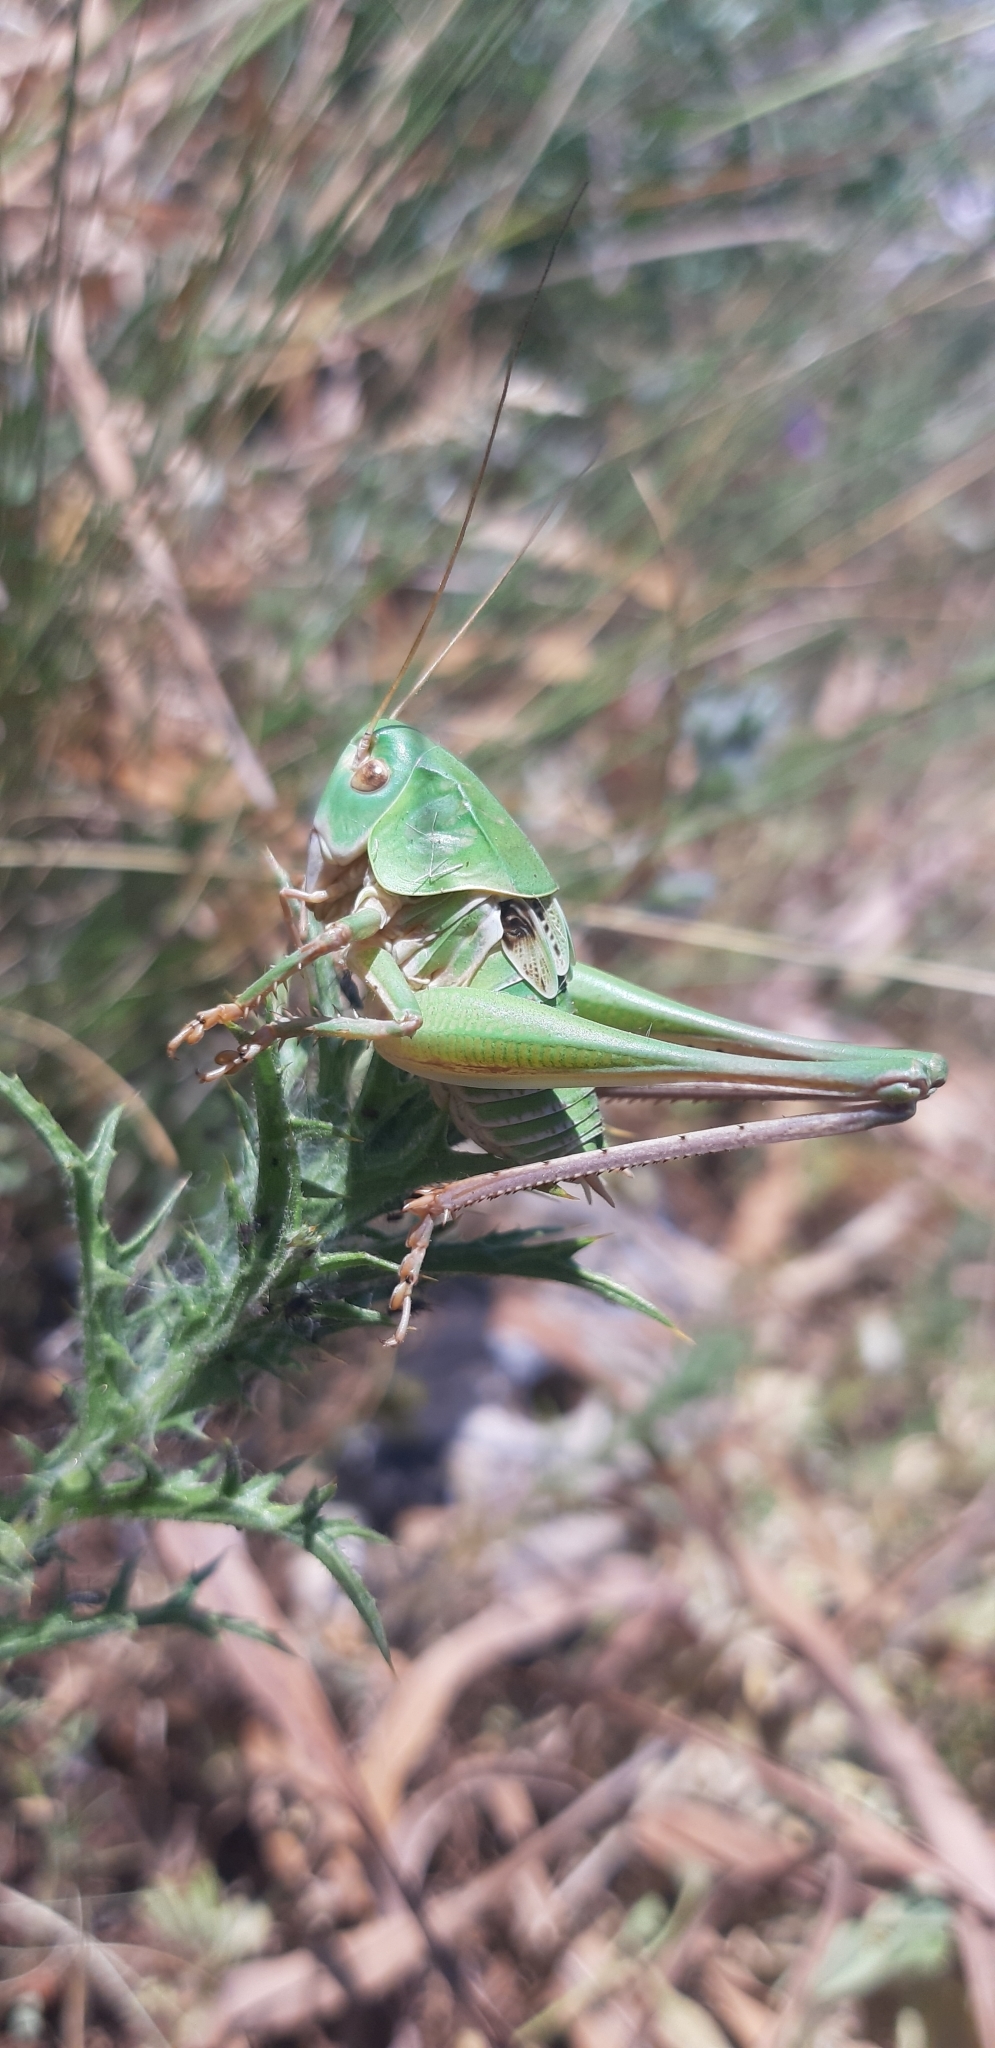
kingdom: Animalia
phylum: Arthropoda
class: Insecta
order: Orthoptera
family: Tettigoniidae
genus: Decticus
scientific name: Decticus loudoni
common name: Apulian wart-biter
